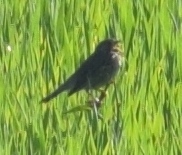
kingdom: Animalia
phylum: Chordata
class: Aves
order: Passeriformes
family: Emberizidae
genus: Emberiza
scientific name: Emberiza calandra
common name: Corn bunting
